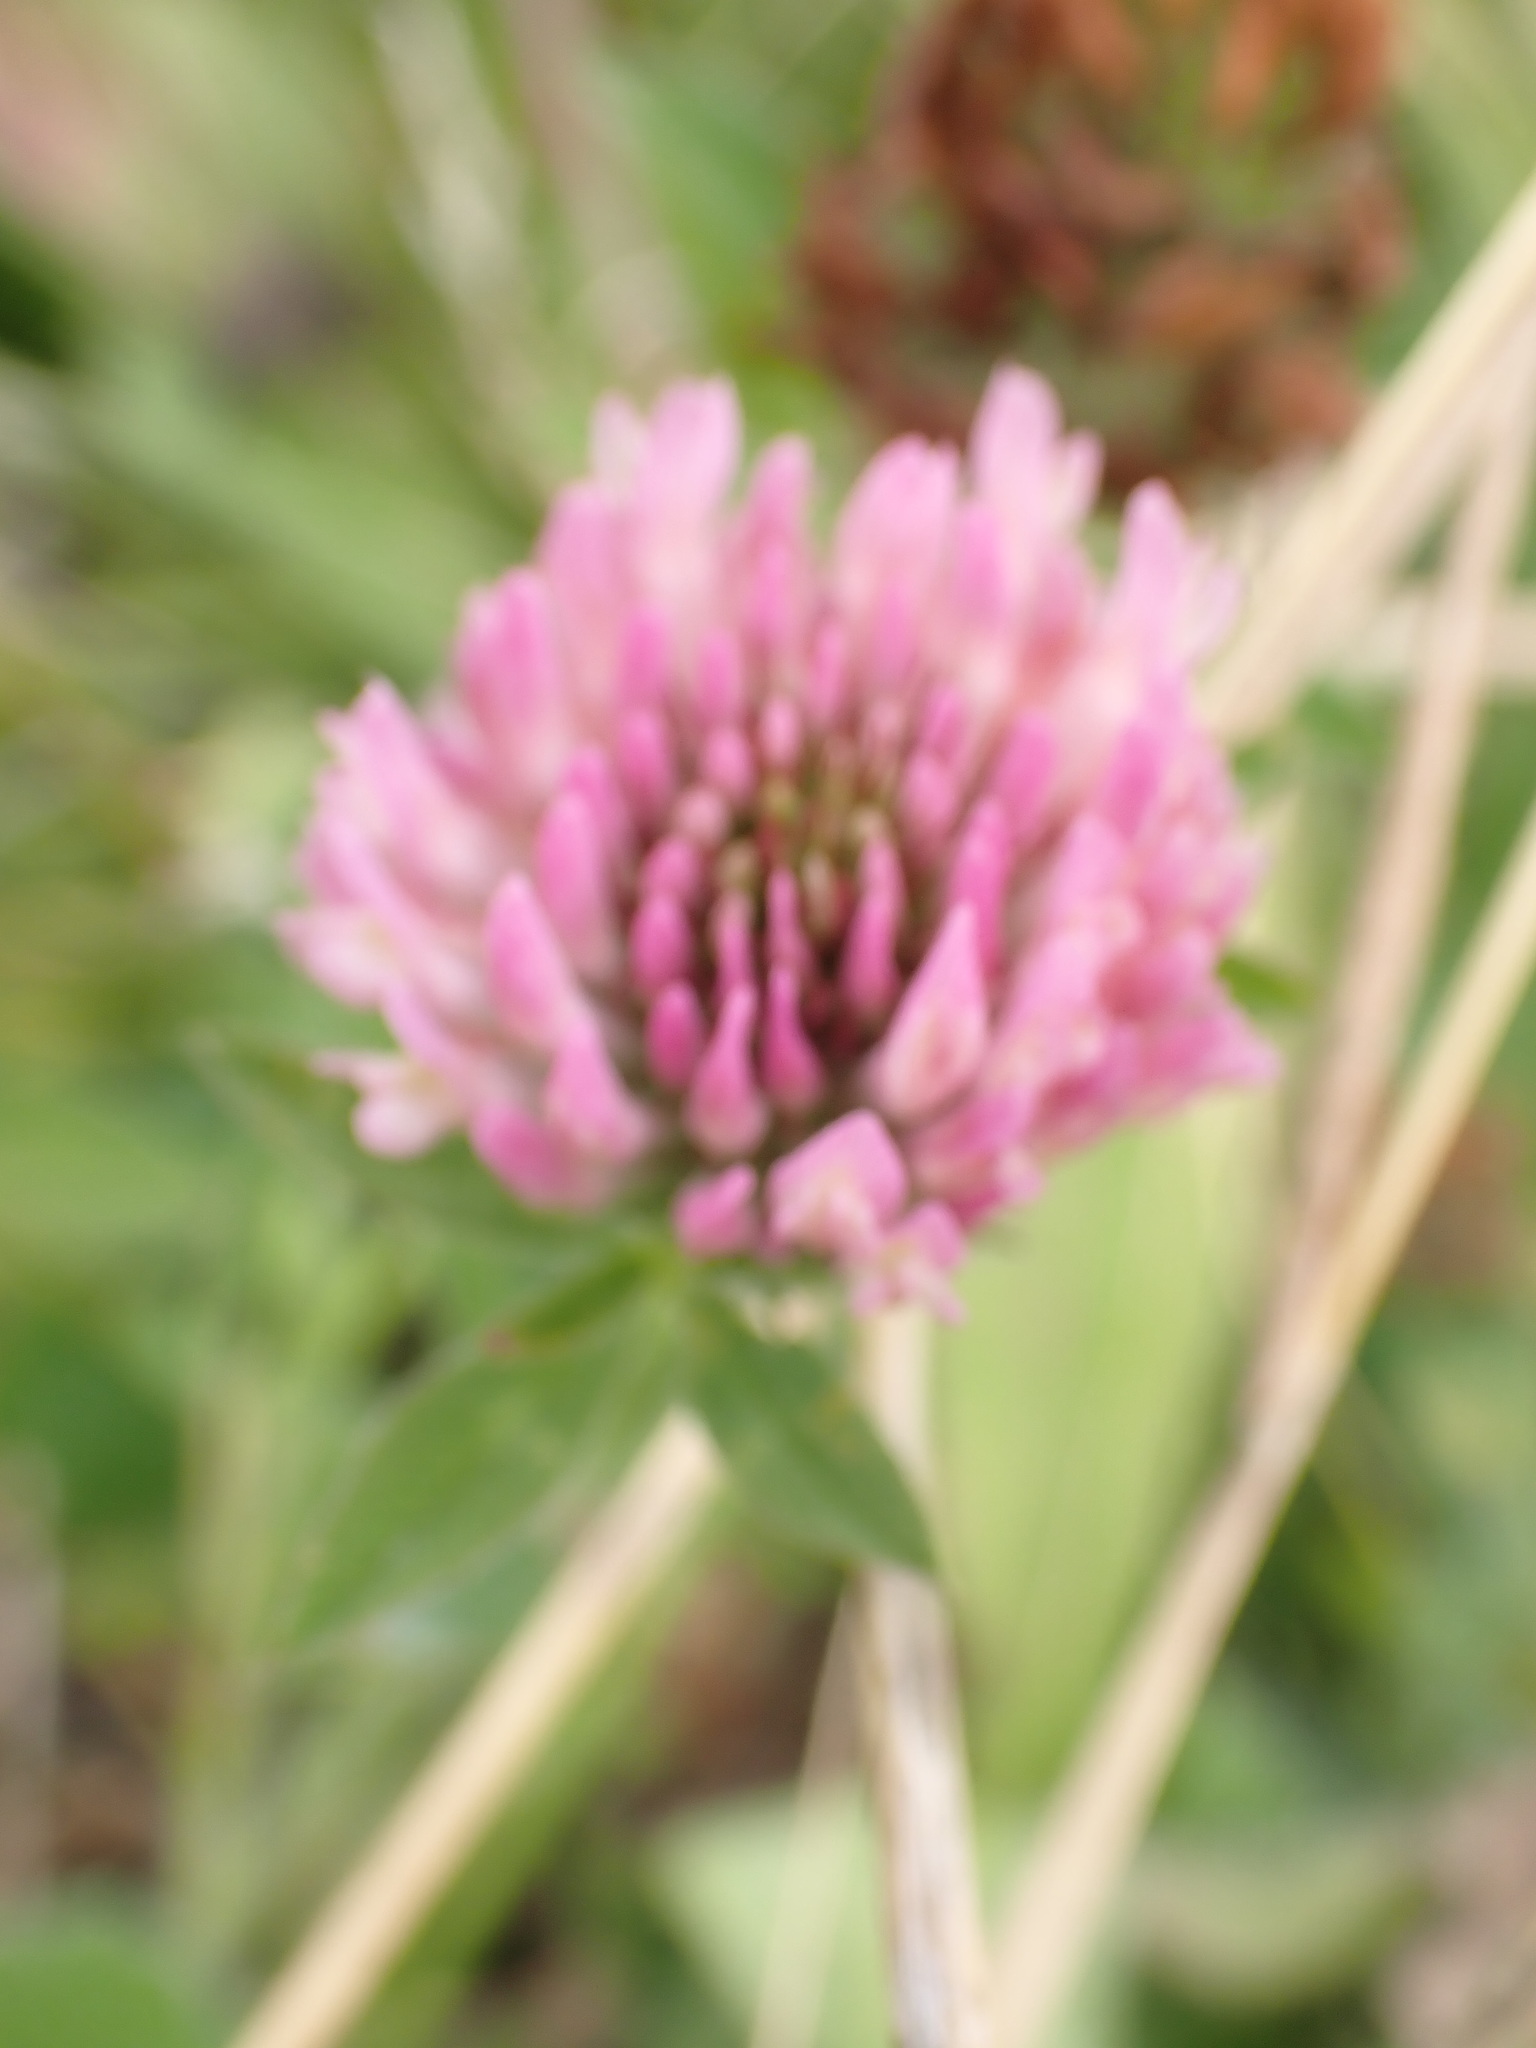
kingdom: Plantae
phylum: Tracheophyta
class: Magnoliopsida
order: Fabales
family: Fabaceae
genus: Trifolium
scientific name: Trifolium pratense
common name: Red clover
